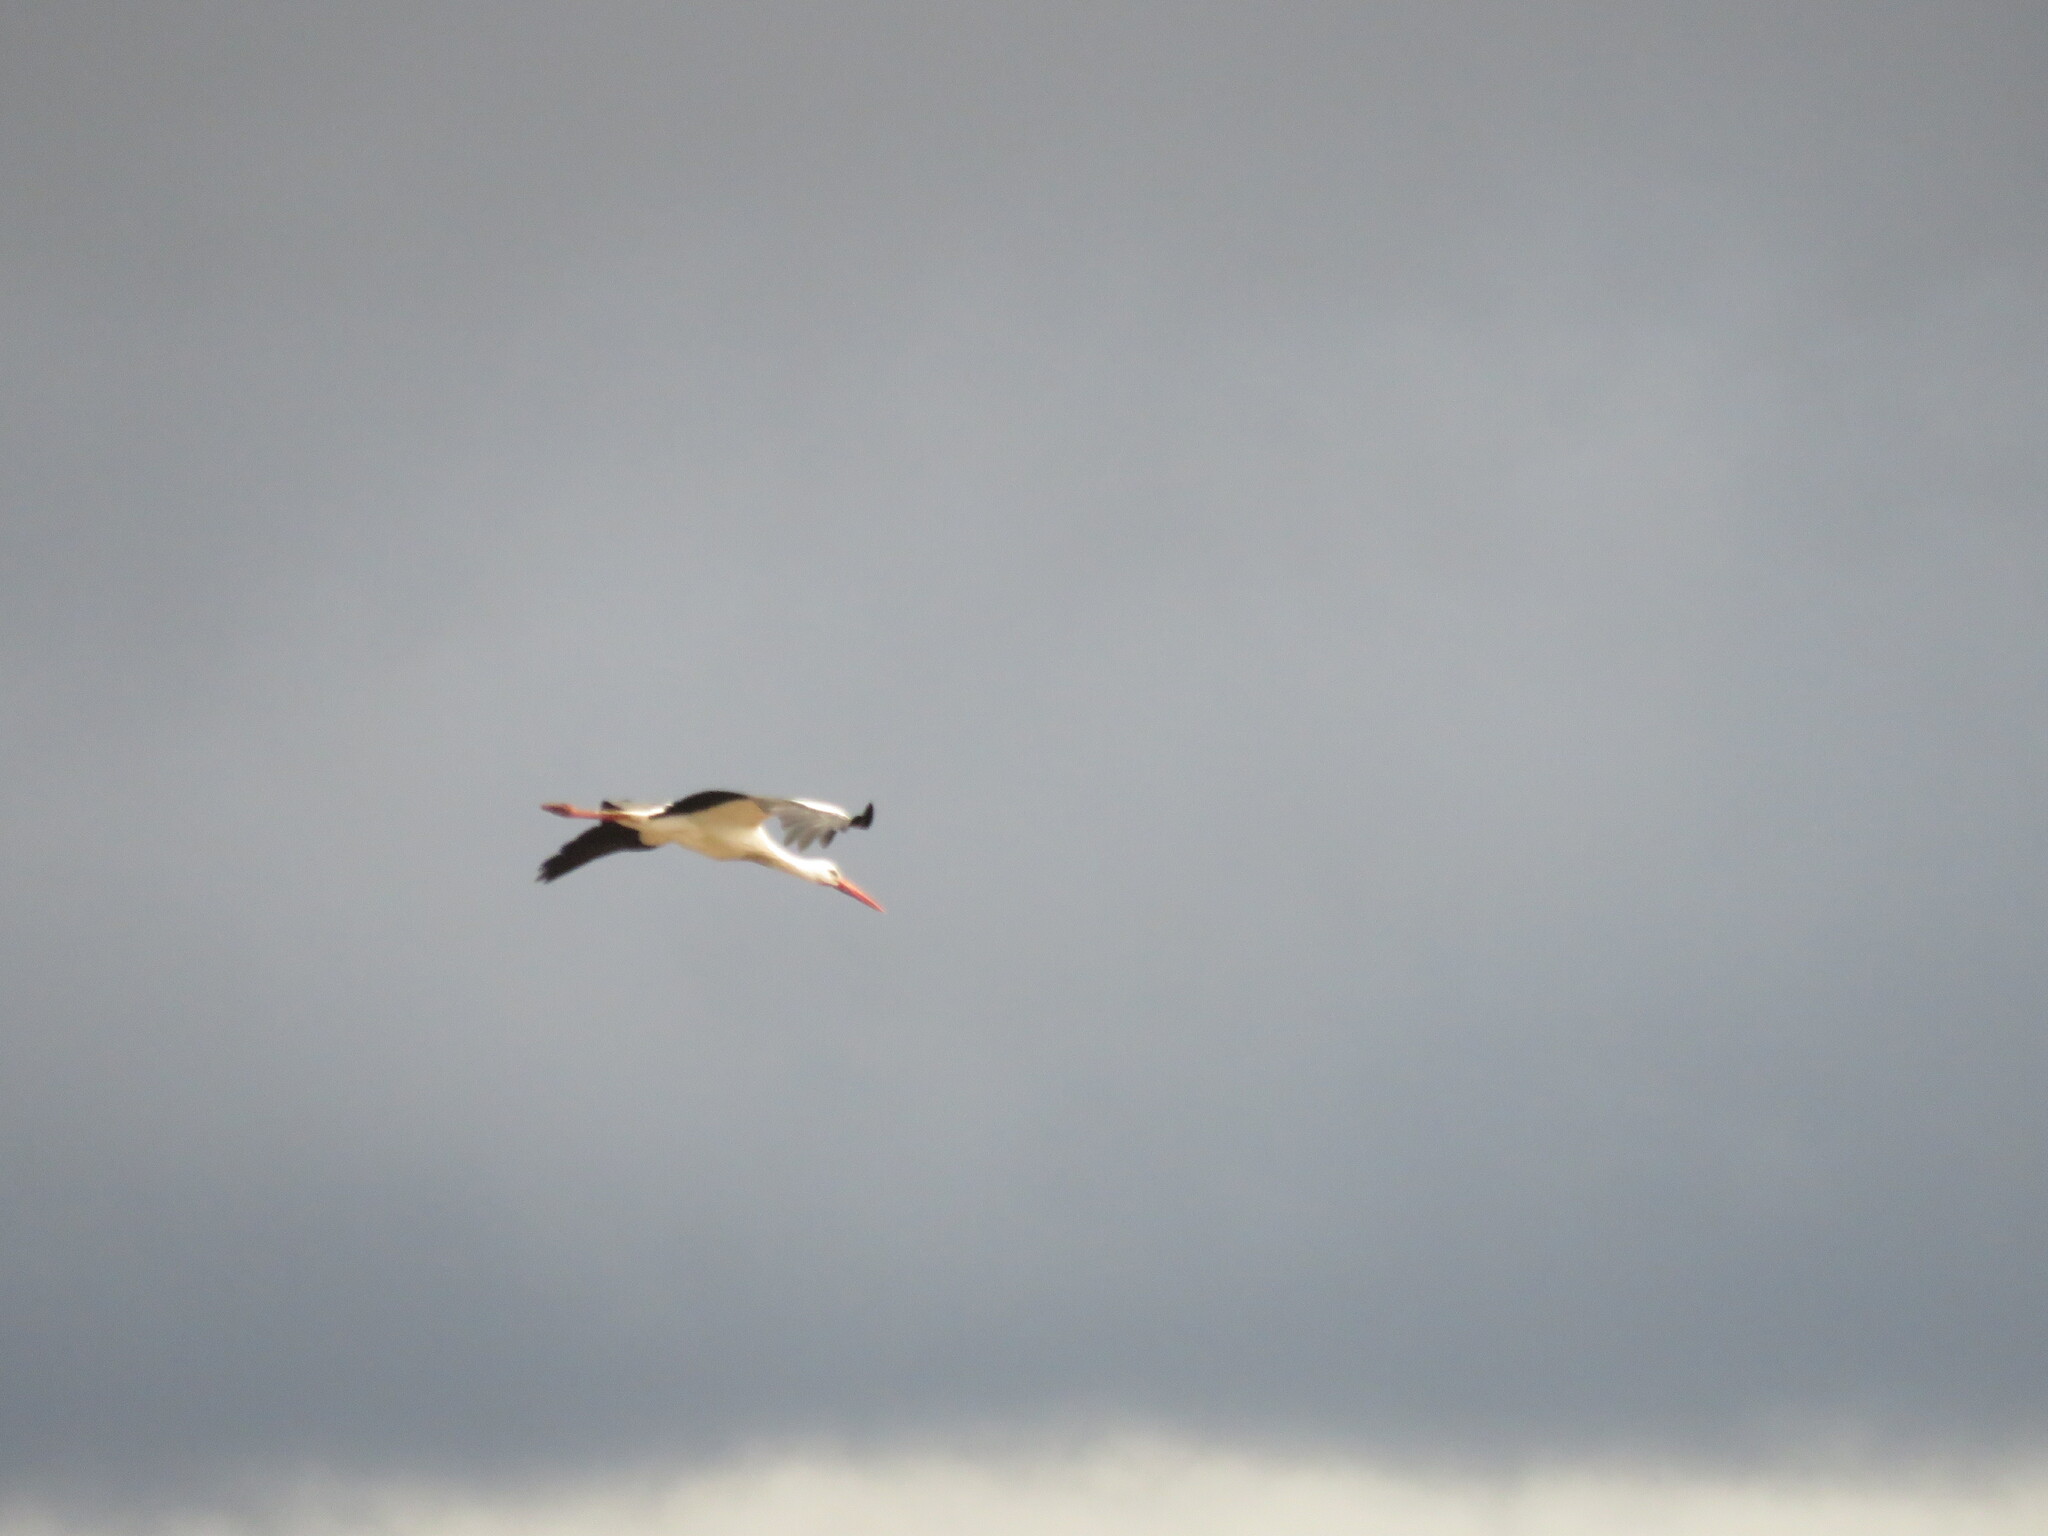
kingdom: Animalia
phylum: Chordata
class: Aves
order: Ciconiiformes
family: Ciconiidae
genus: Ciconia
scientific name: Ciconia ciconia
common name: White stork
